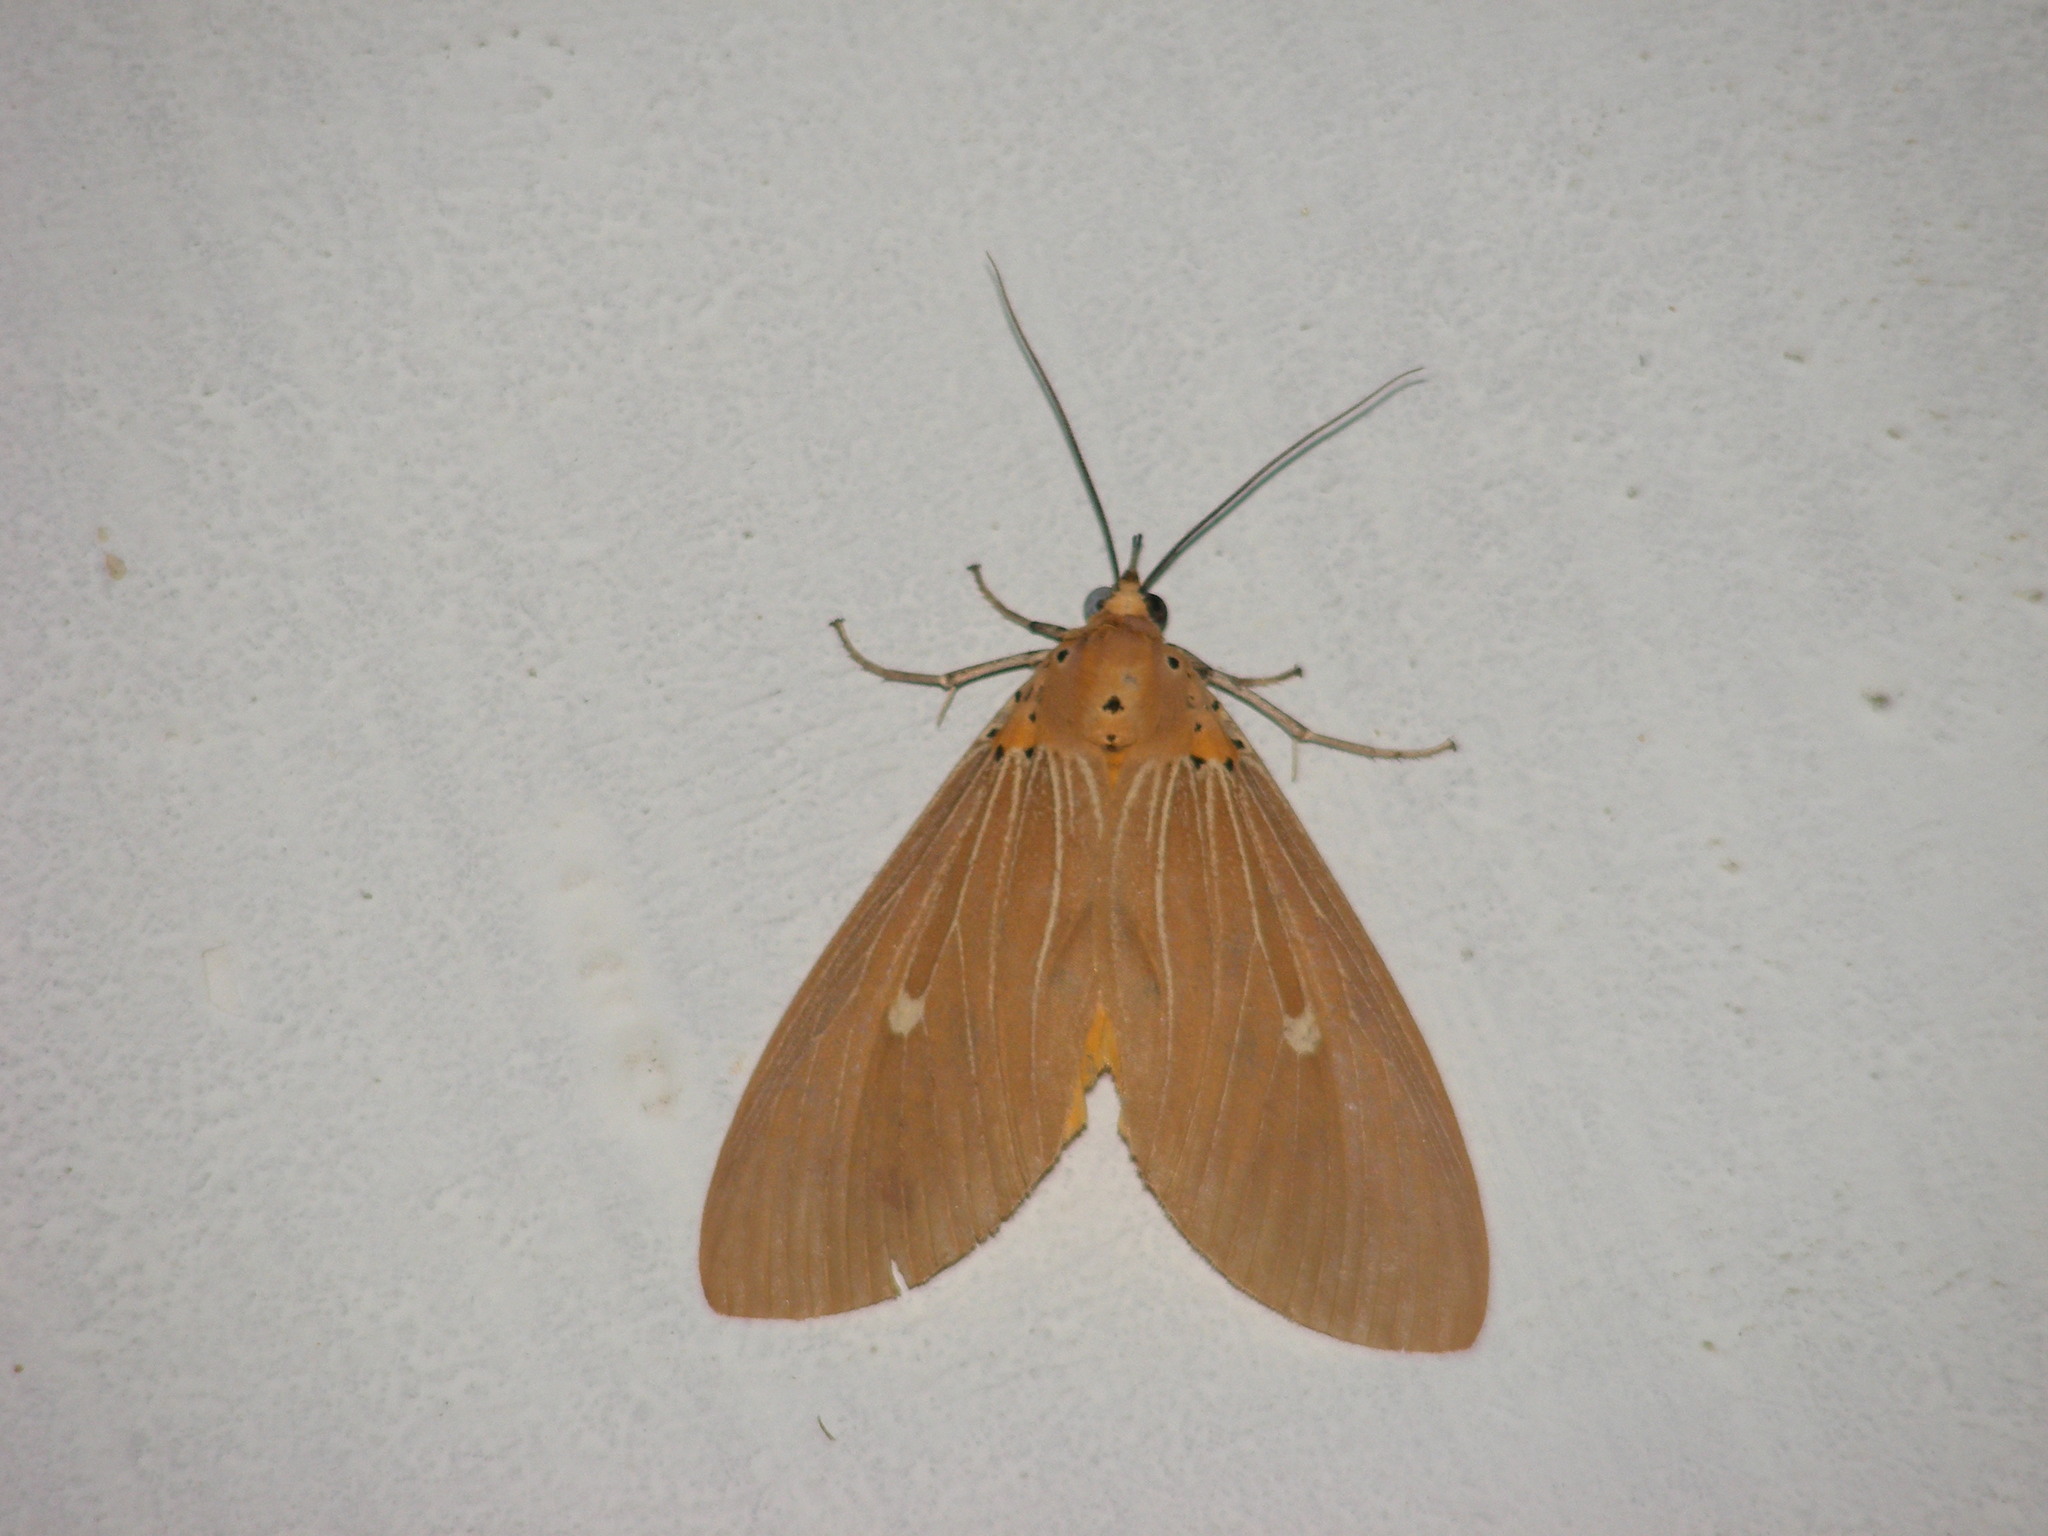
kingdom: Animalia
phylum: Arthropoda
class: Insecta
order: Lepidoptera
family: Erebidae
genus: Asota
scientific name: Asota caricae
